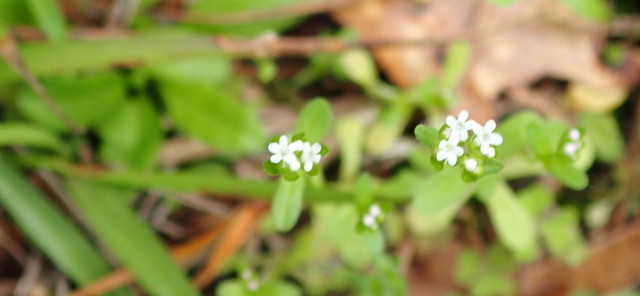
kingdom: Plantae
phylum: Tracheophyta
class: Magnoliopsida
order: Dipsacales
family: Caprifoliaceae
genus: Valerianella
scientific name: Valerianella radiata
